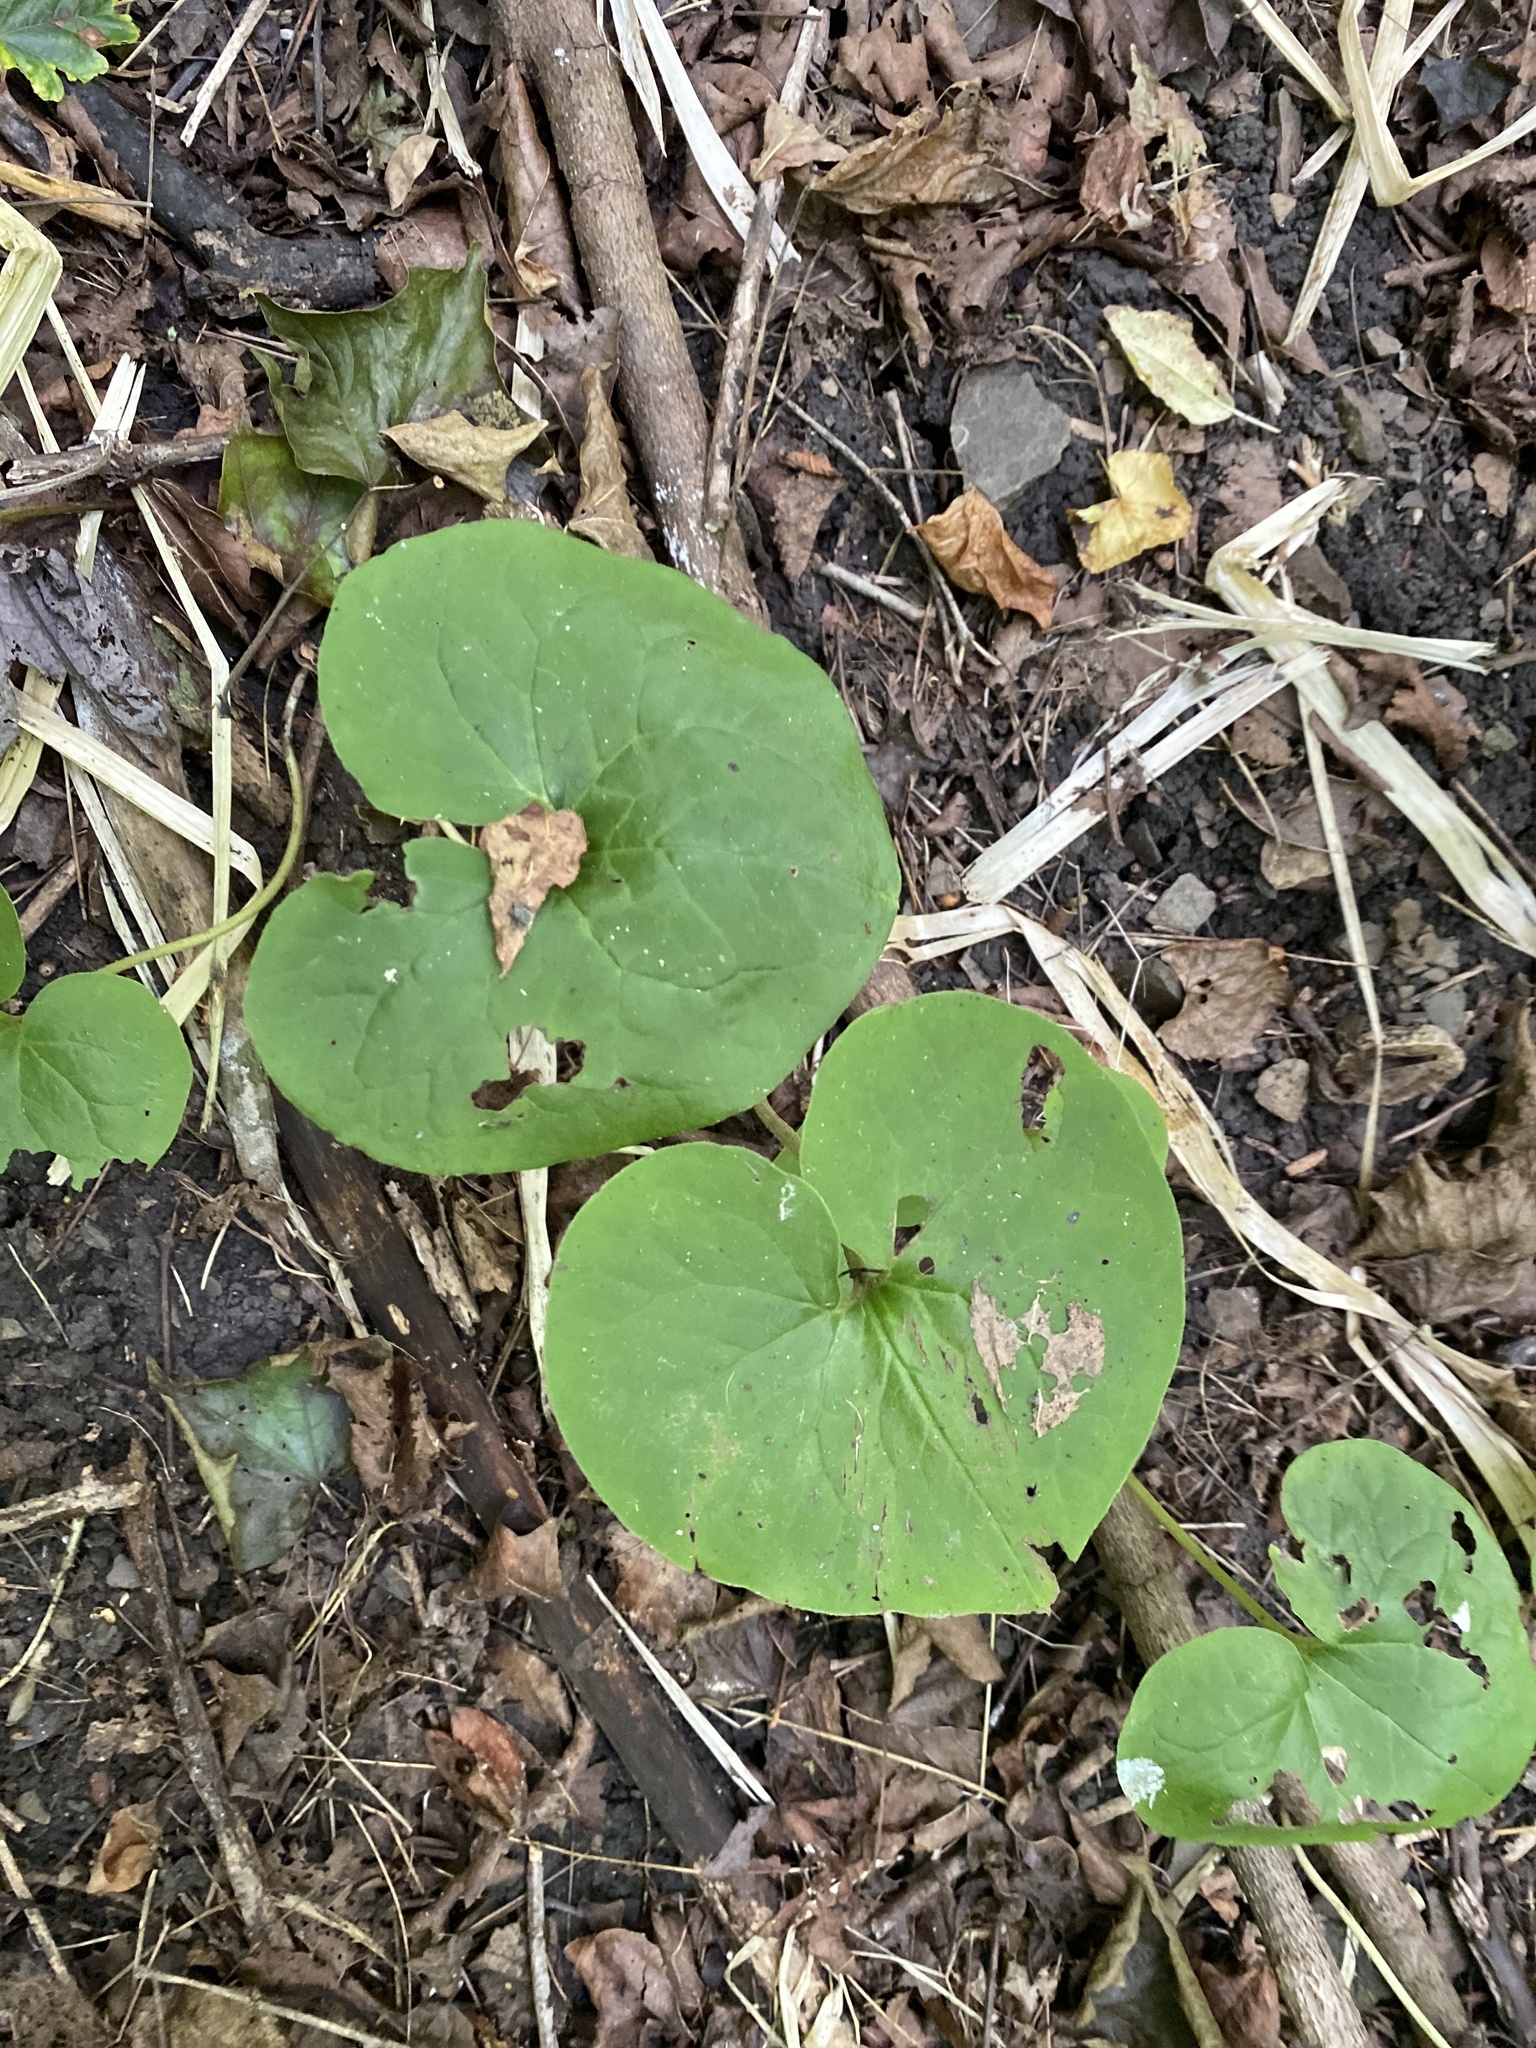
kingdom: Plantae
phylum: Tracheophyta
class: Magnoliopsida
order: Piperales
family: Aristolochiaceae
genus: Asarum
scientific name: Asarum canadense
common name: Wild ginger
